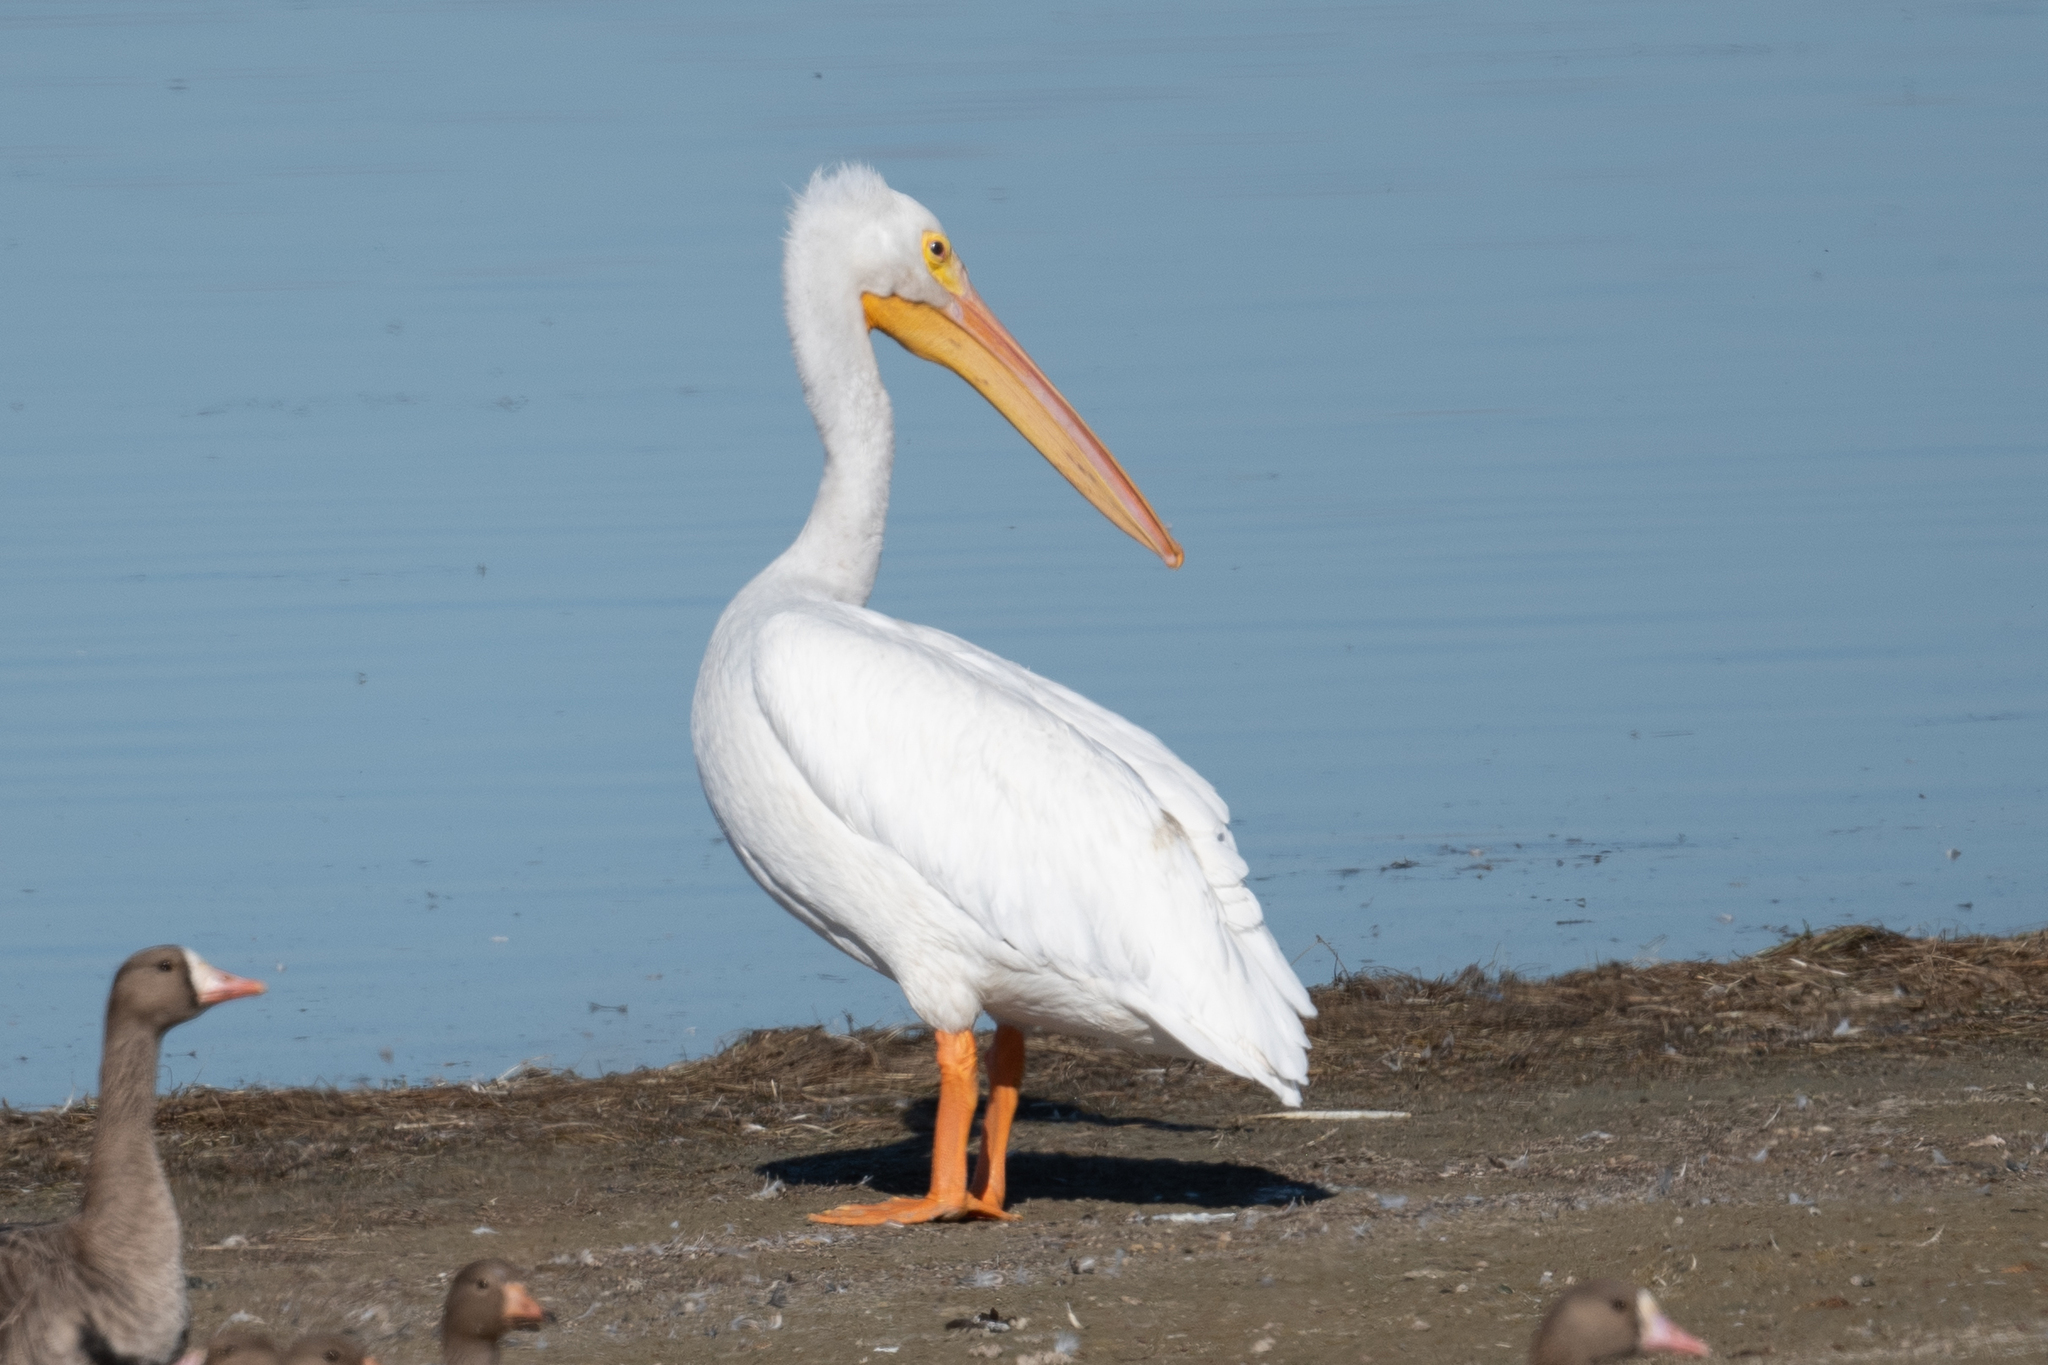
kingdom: Animalia
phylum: Chordata
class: Aves
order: Pelecaniformes
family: Pelecanidae
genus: Pelecanus
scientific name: Pelecanus erythrorhynchos
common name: American white pelican
